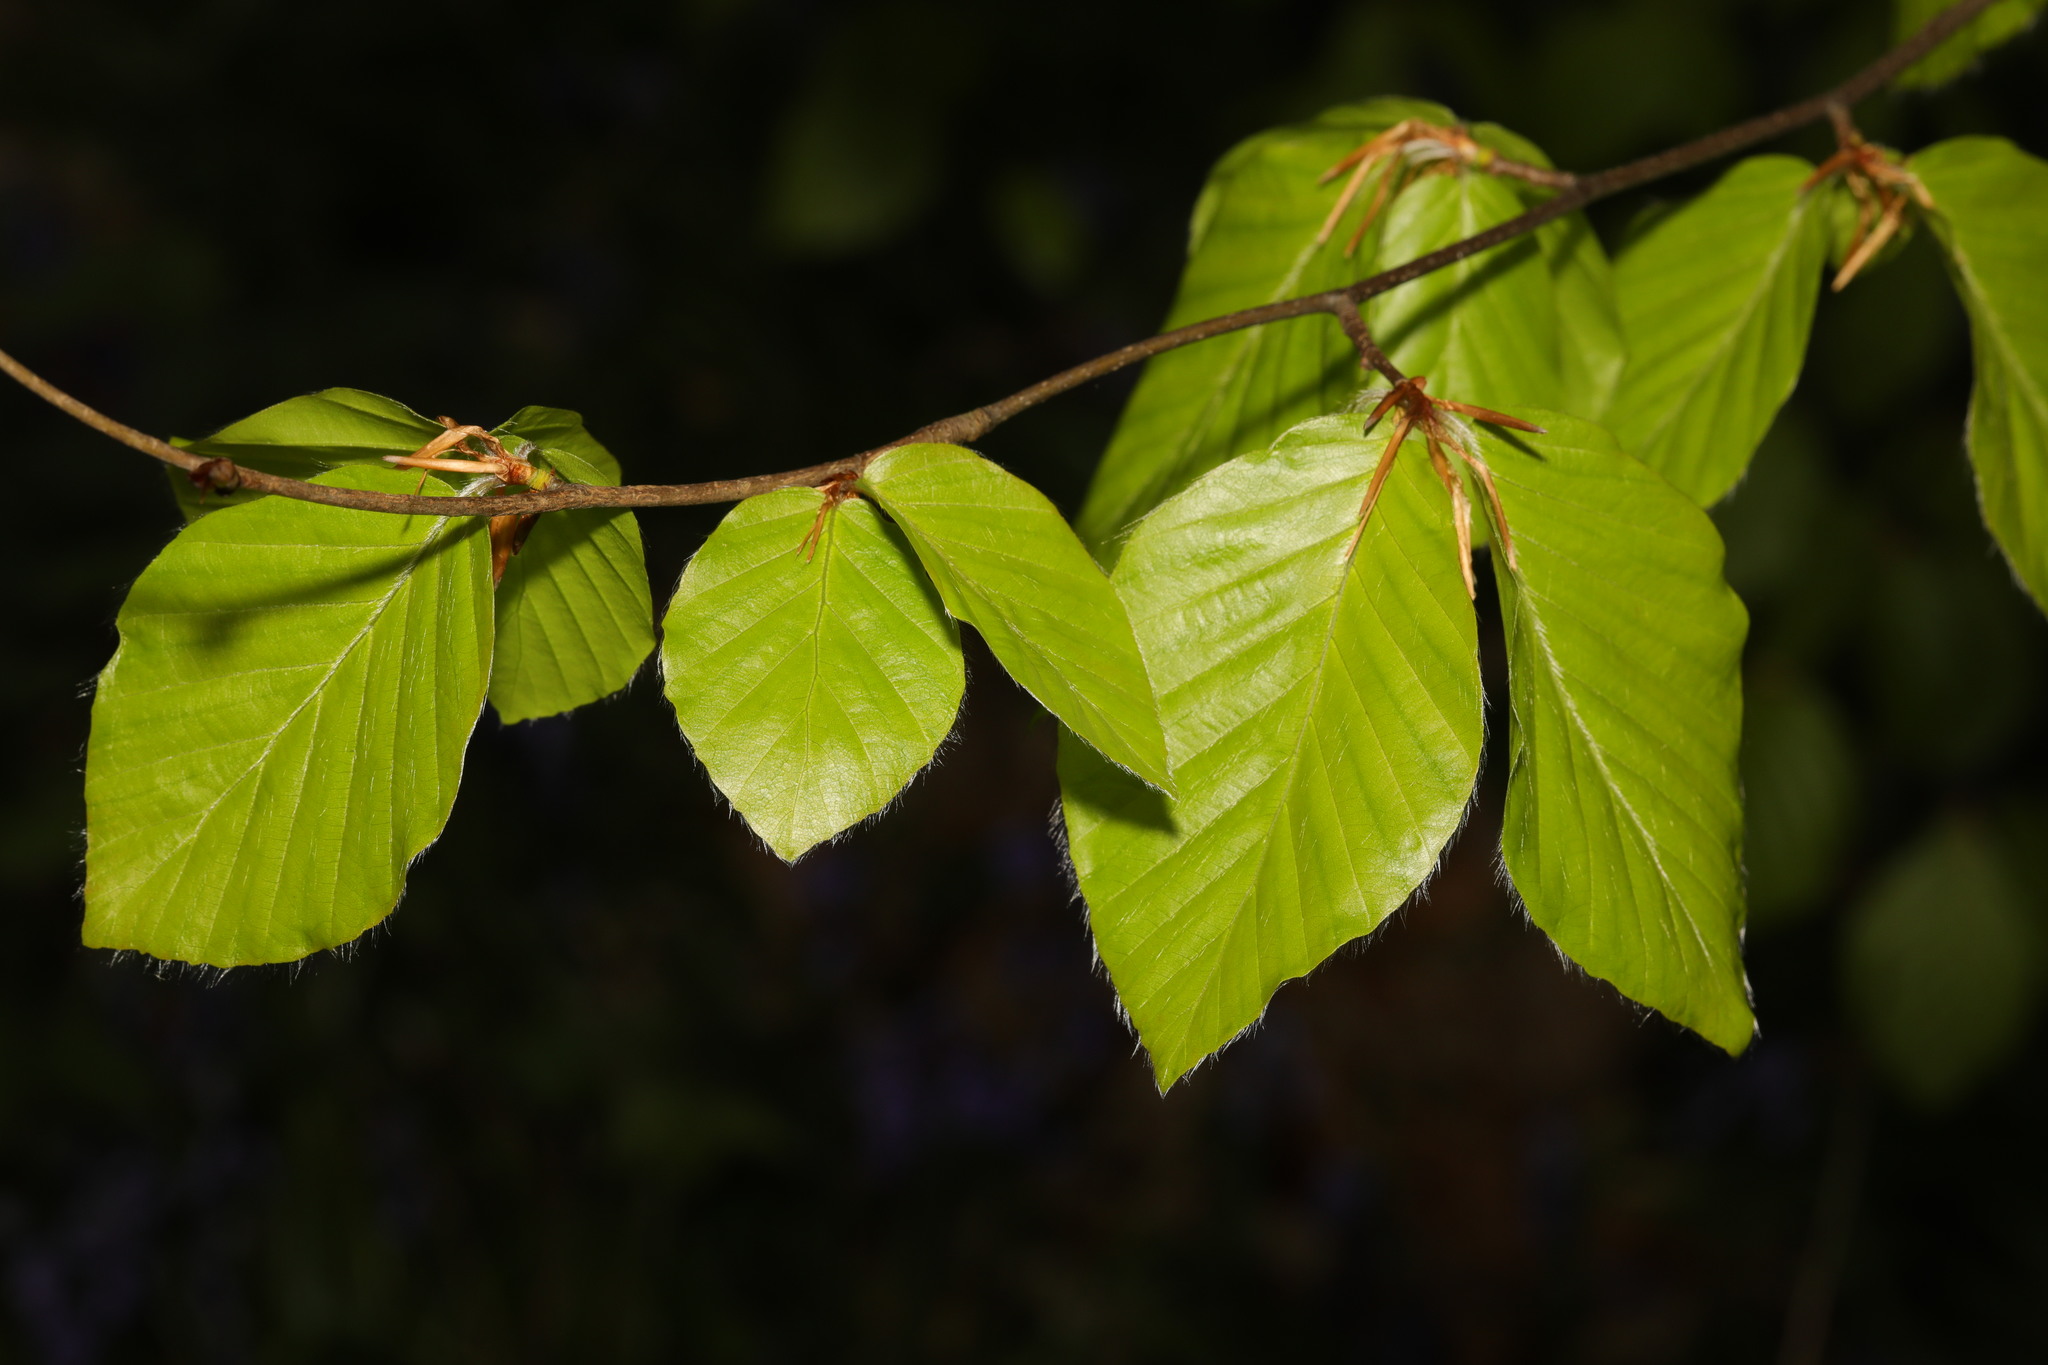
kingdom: Plantae
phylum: Tracheophyta
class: Magnoliopsida
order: Fagales
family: Fagaceae
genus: Fagus
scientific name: Fagus sylvatica
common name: Beech
